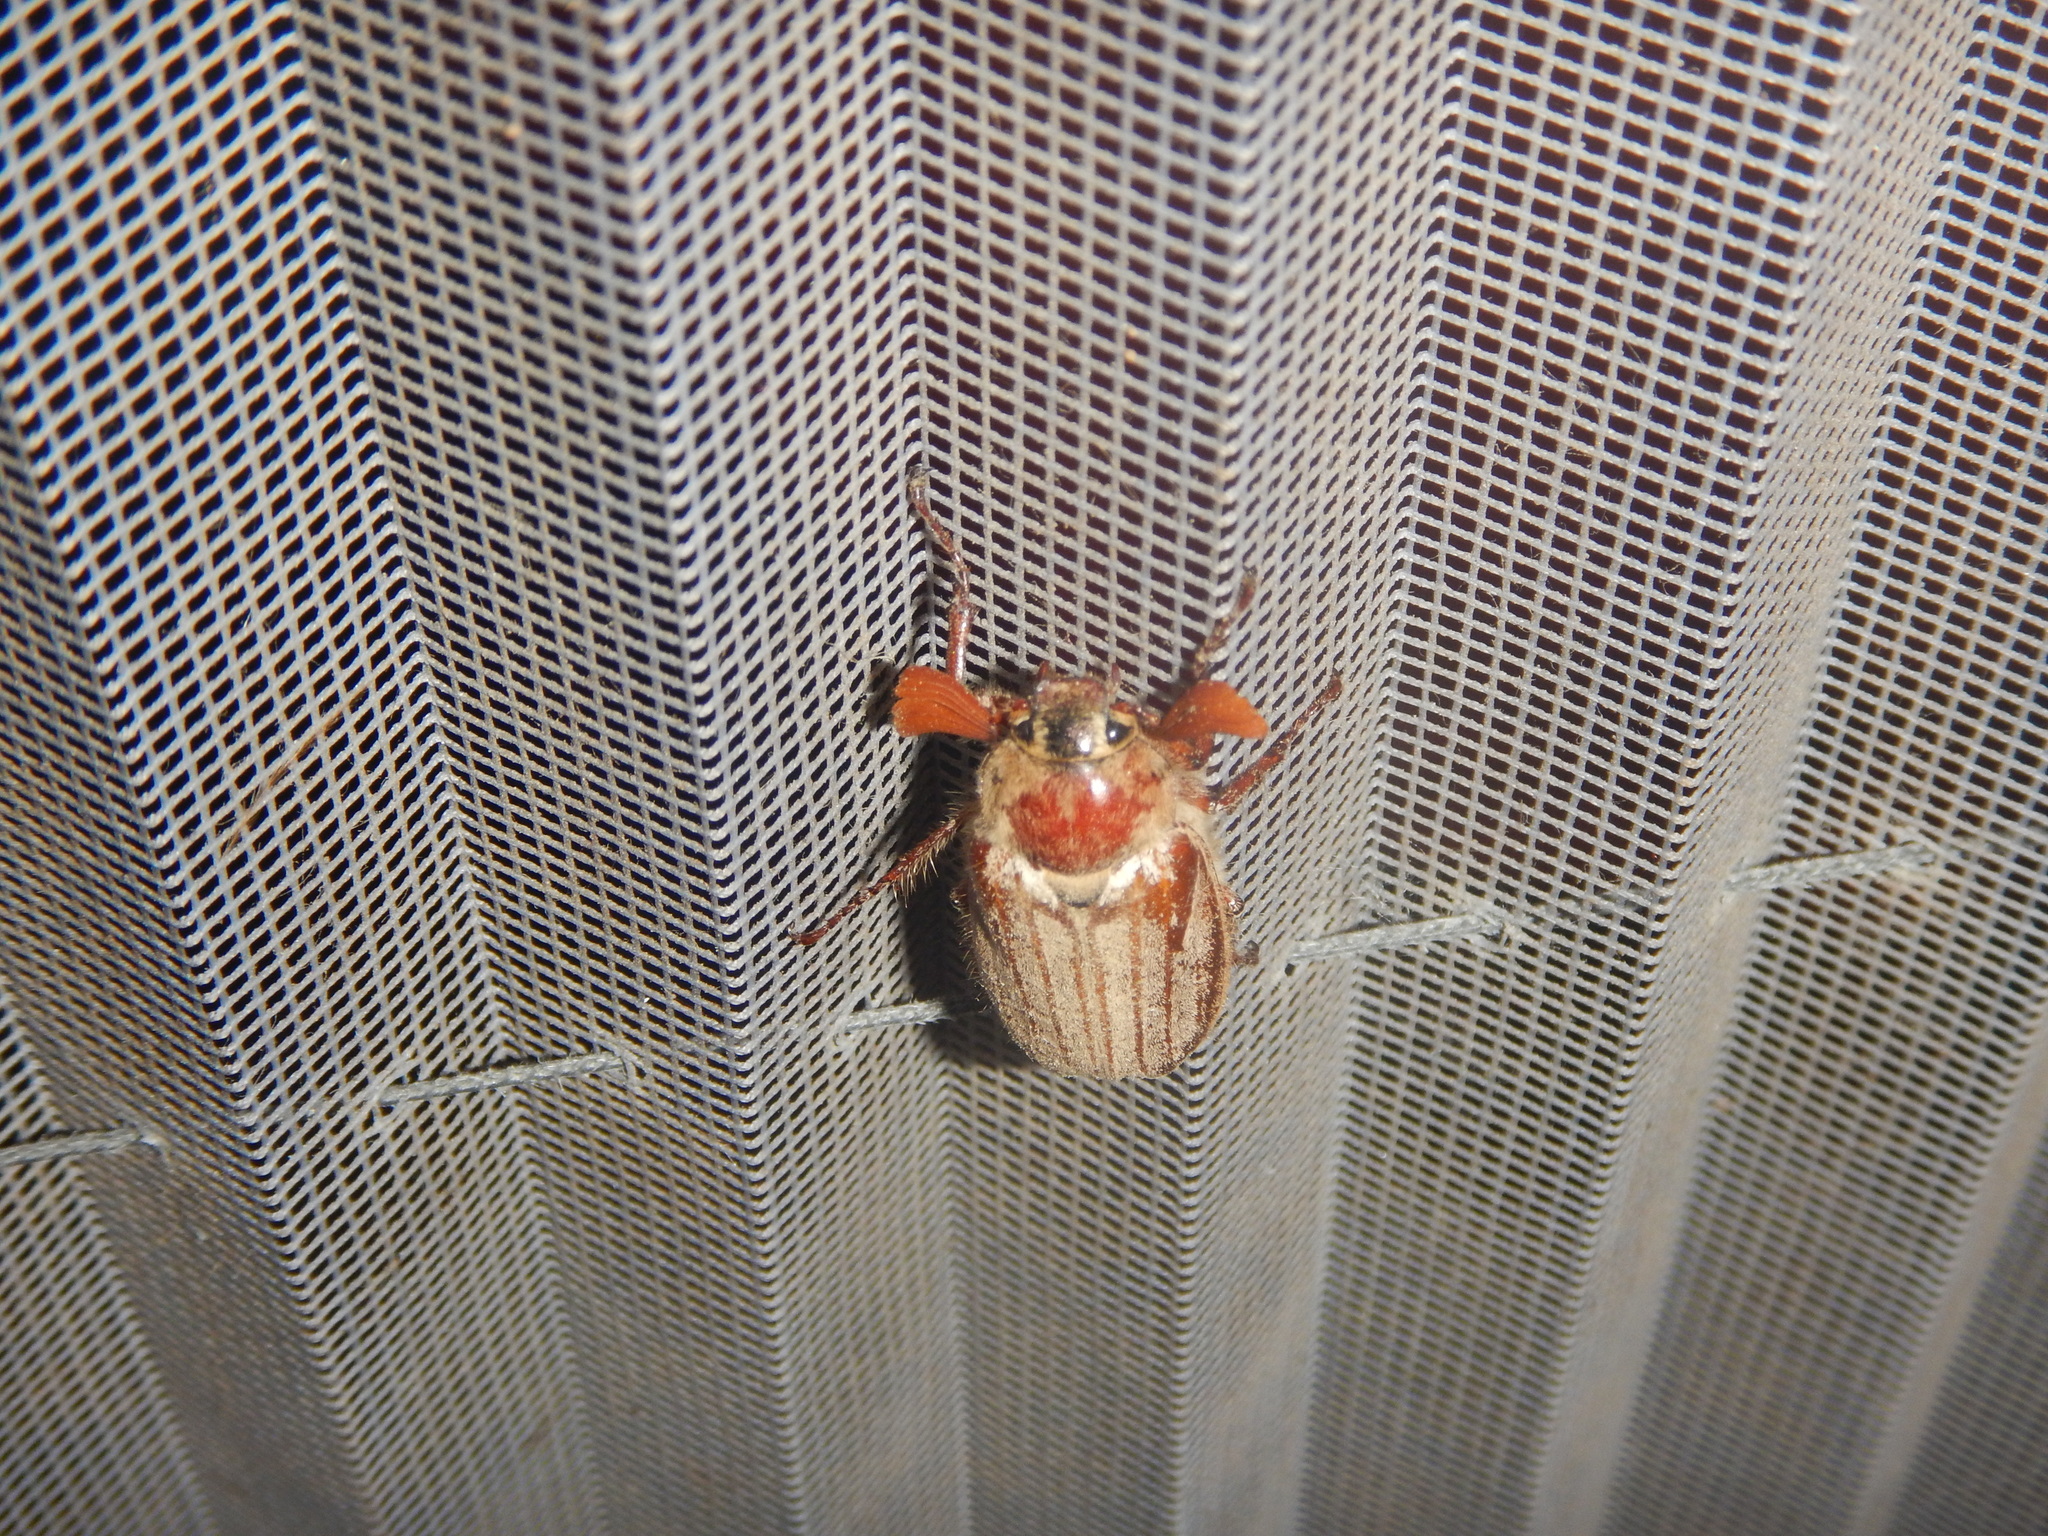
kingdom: Animalia
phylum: Arthropoda
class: Insecta
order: Coleoptera
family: Scarabaeidae
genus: Melolontha
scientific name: Melolontha melolontha
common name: Cockchafer maybeetle
